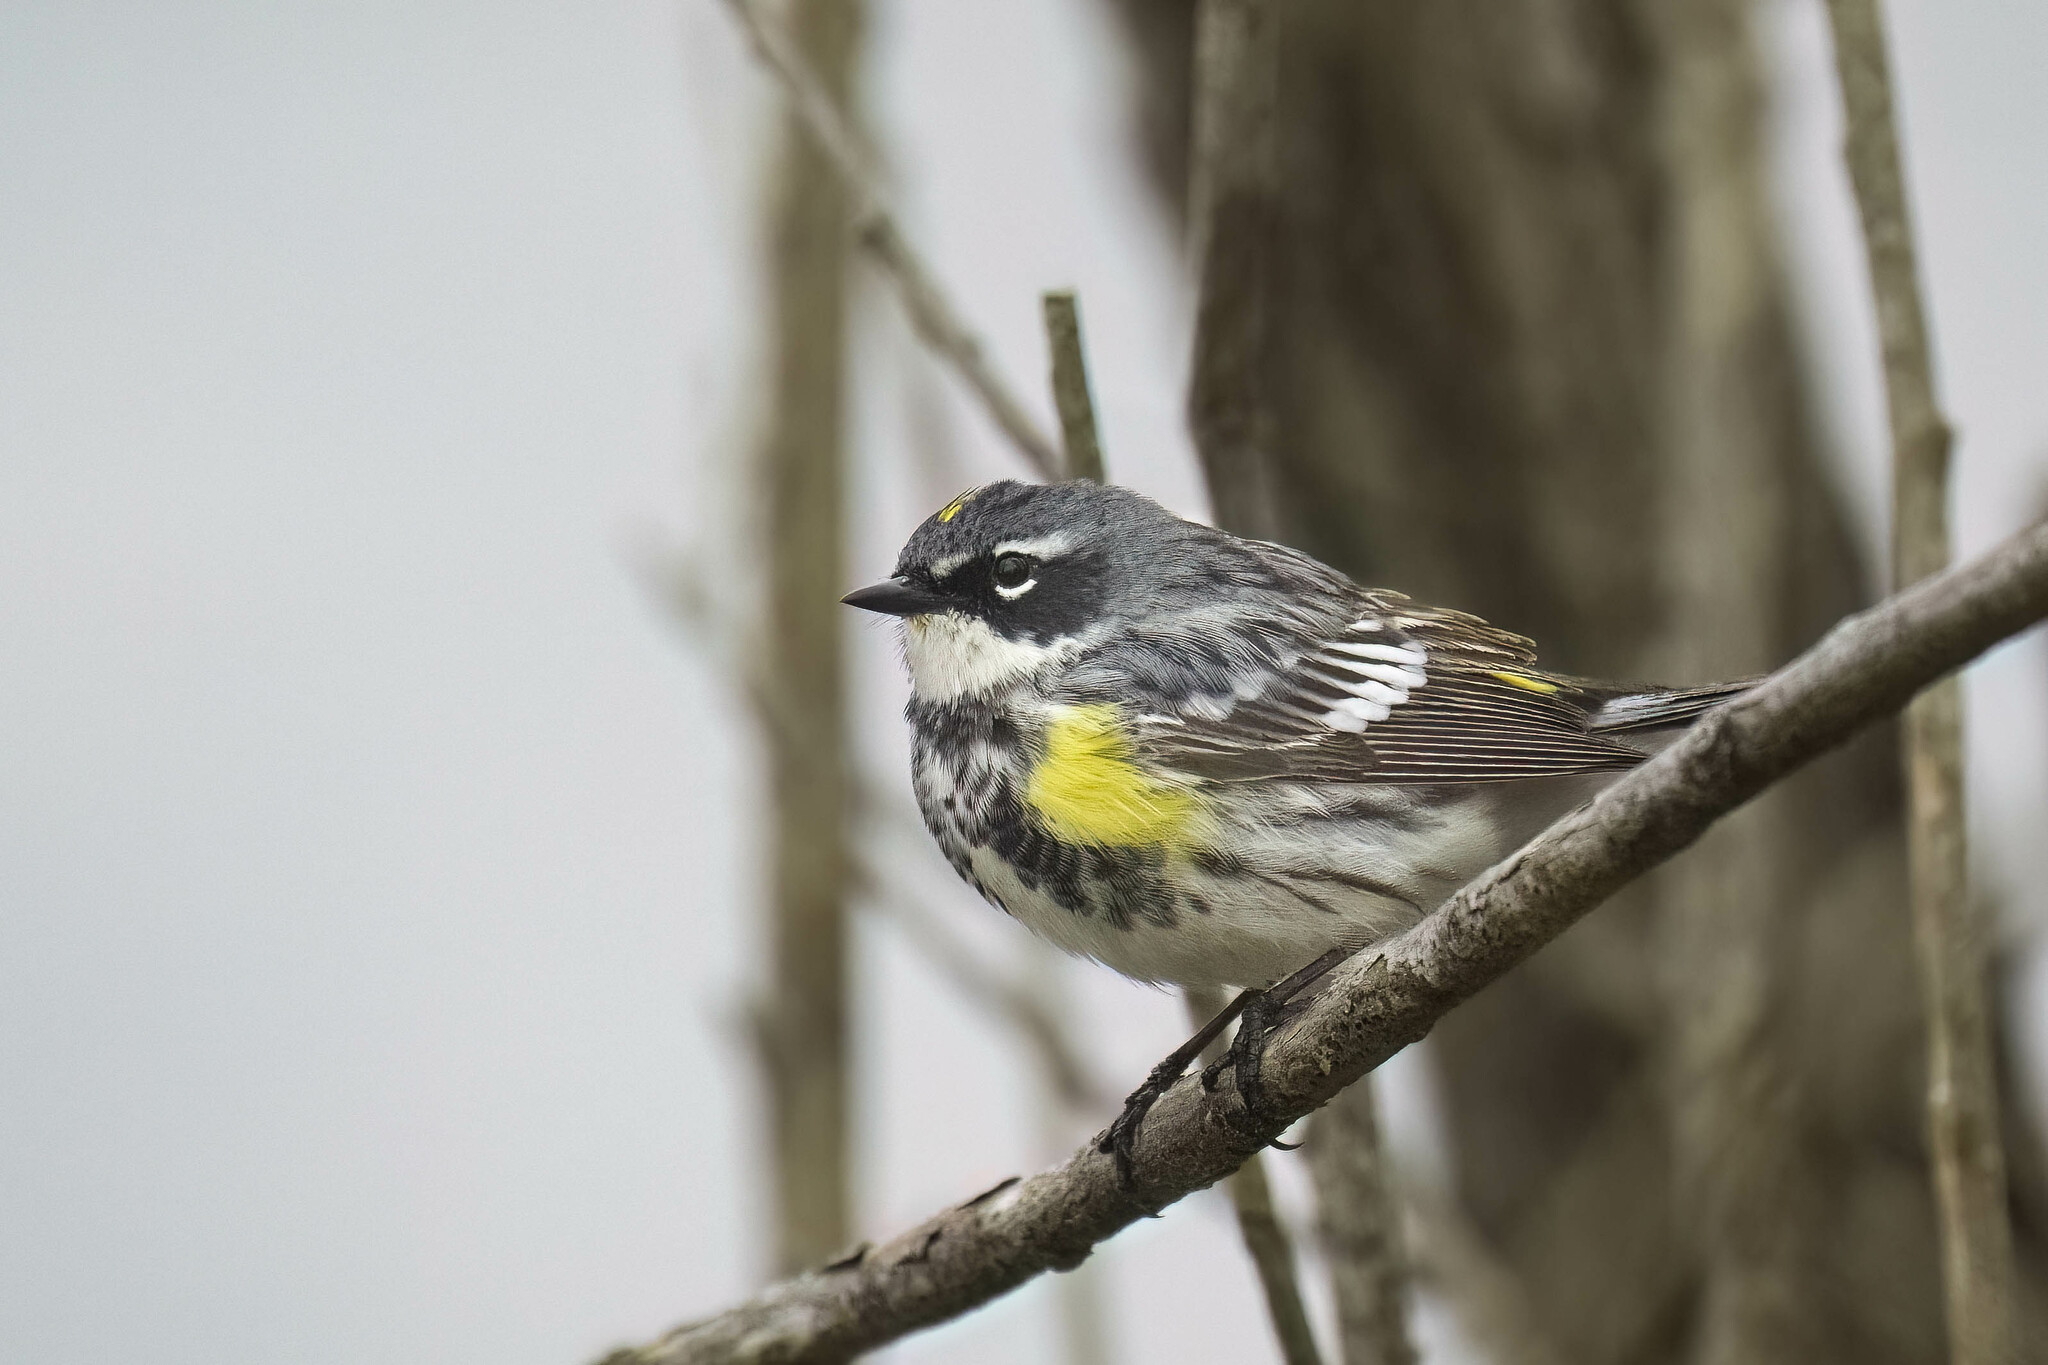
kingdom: Animalia
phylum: Chordata
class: Aves
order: Passeriformes
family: Parulidae
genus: Setophaga
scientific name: Setophaga coronata
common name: Myrtle warbler
